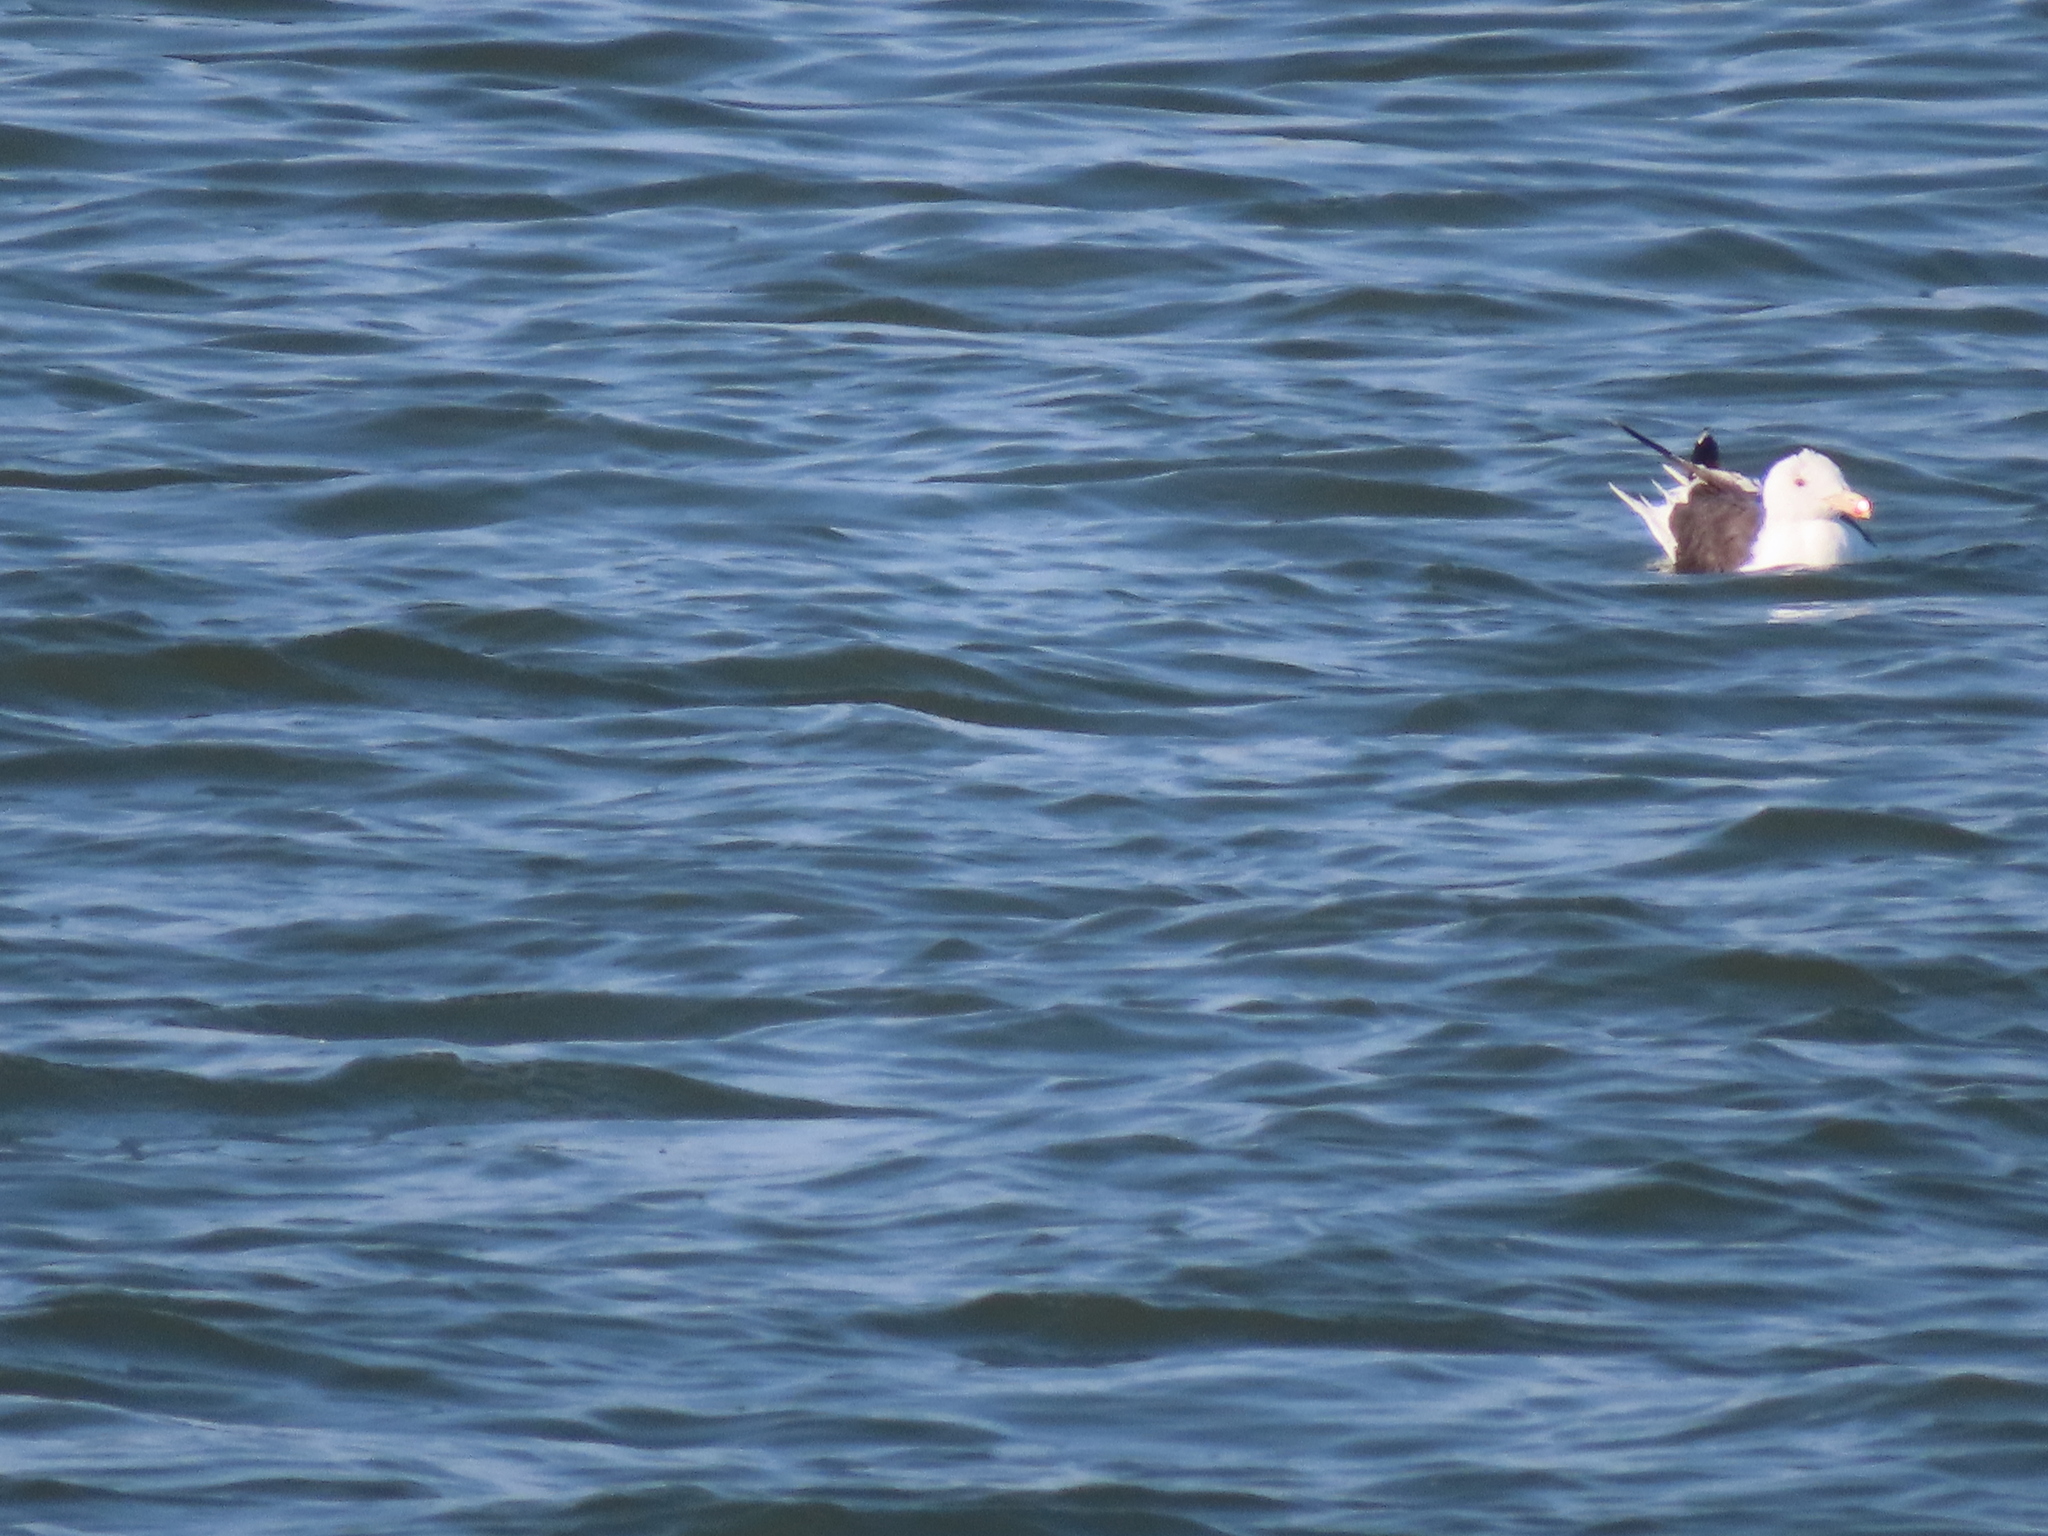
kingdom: Animalia
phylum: Chordata
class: Aves
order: Charadriiformes
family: Laridae
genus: Larus
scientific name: Larus marinus
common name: Great black-backed gull
